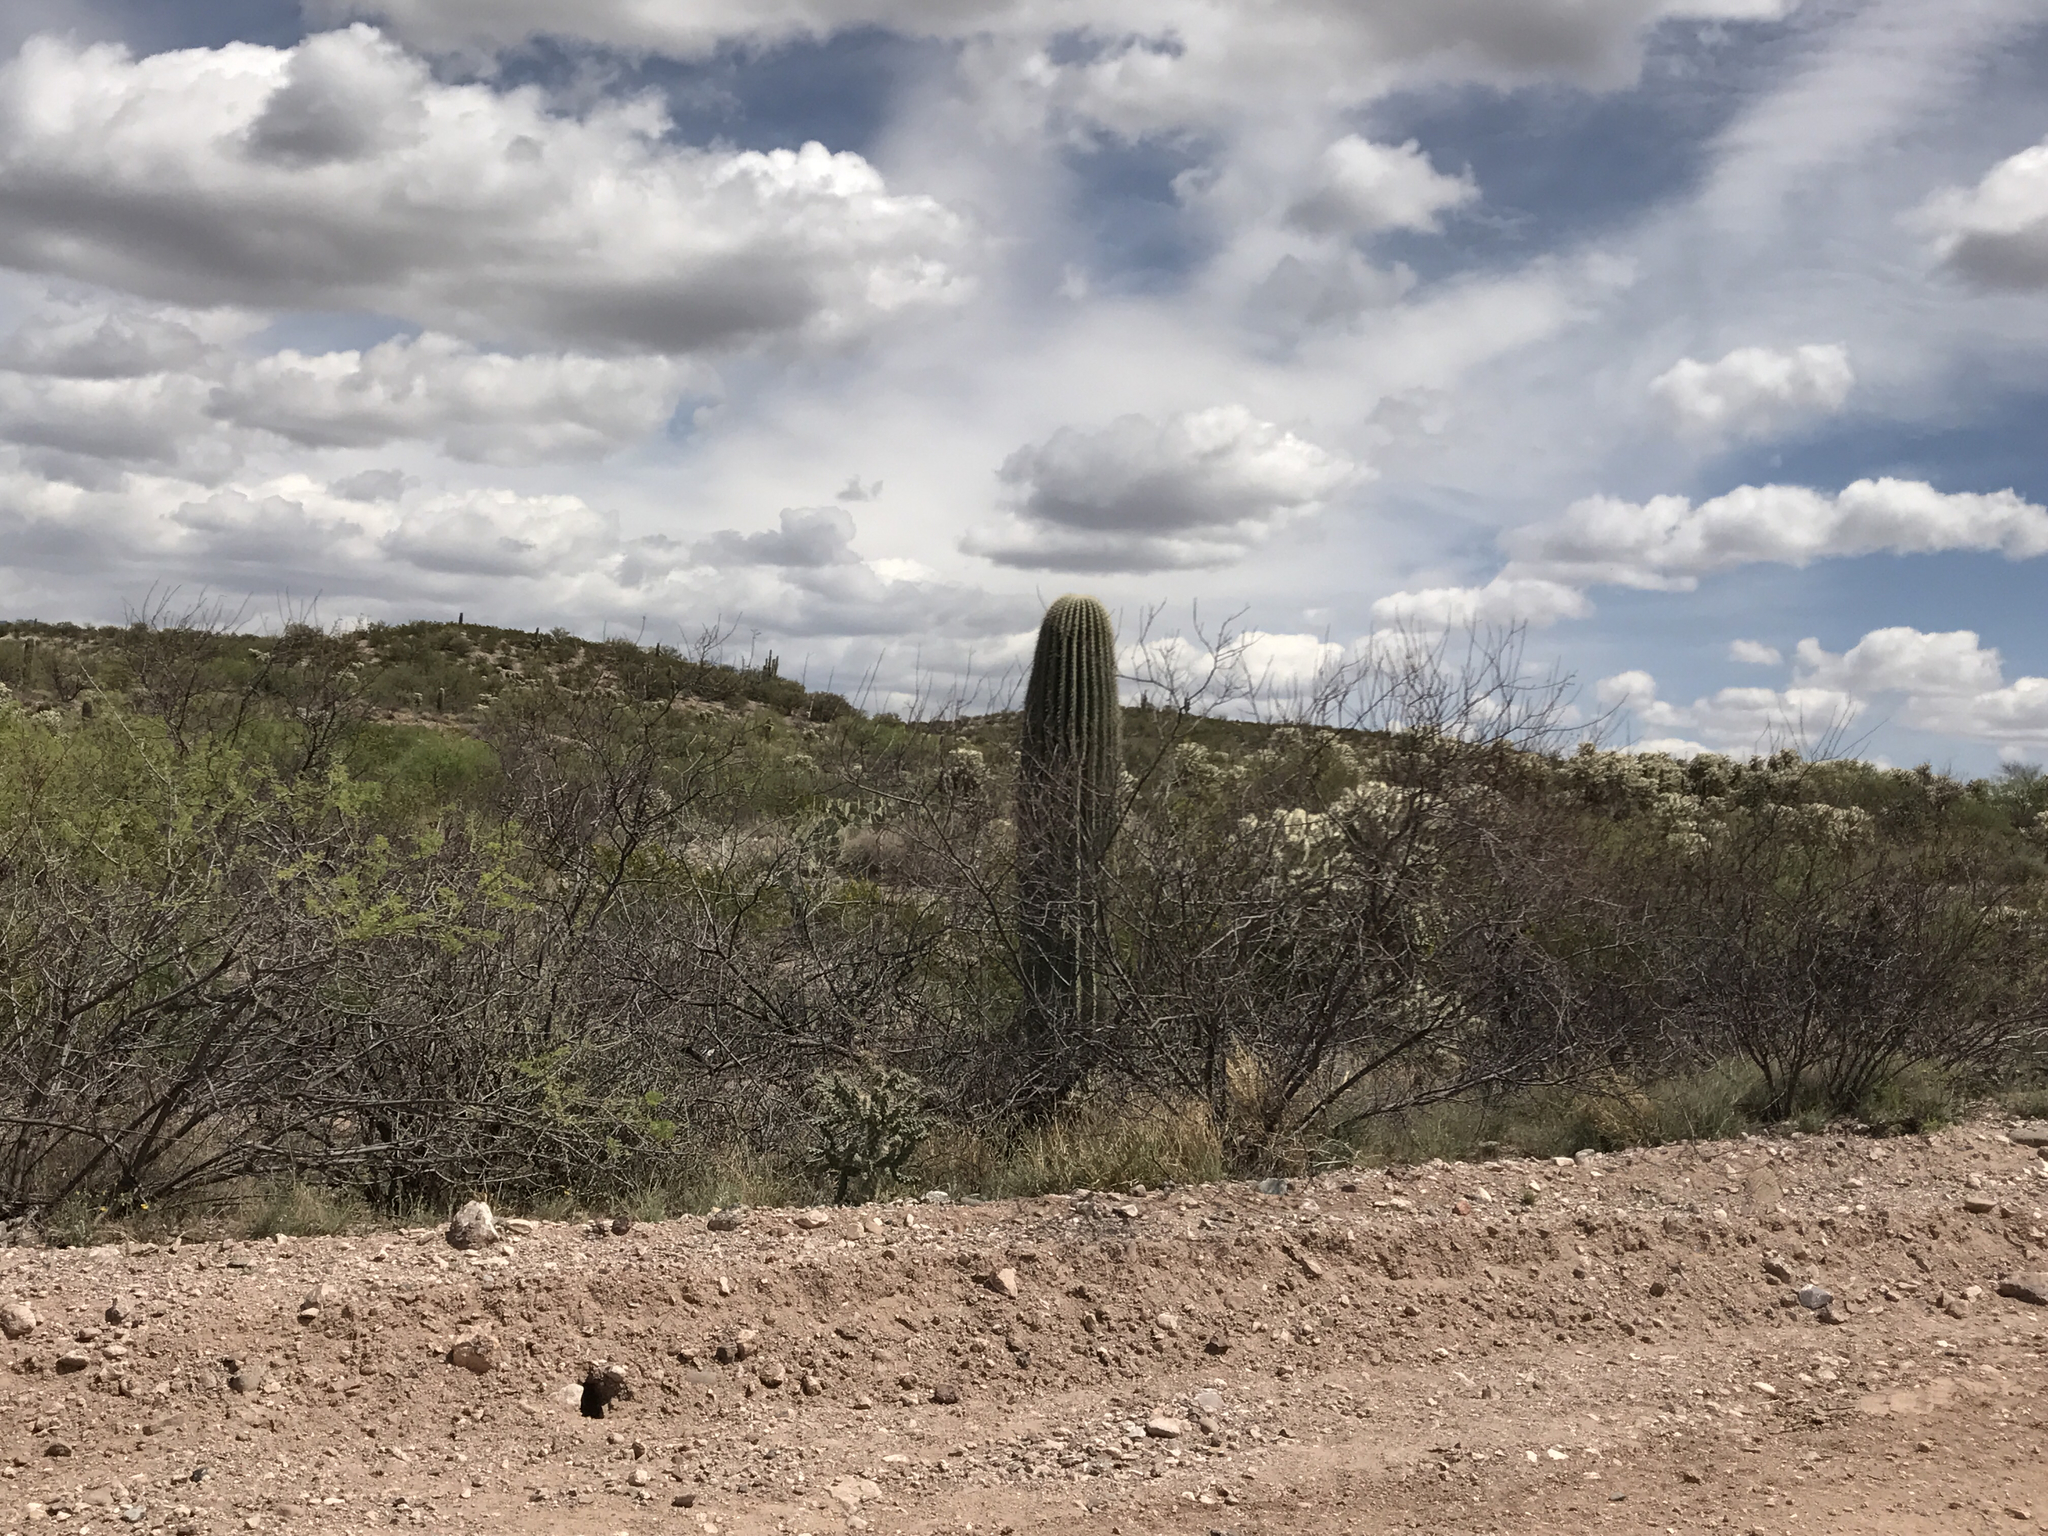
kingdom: Plantae
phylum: Tracheophyta
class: Magnoliopsida
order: Caryophyllales
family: Cactaceae
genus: Carnegiea
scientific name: Carnegiea gigantea
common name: Saguaro
